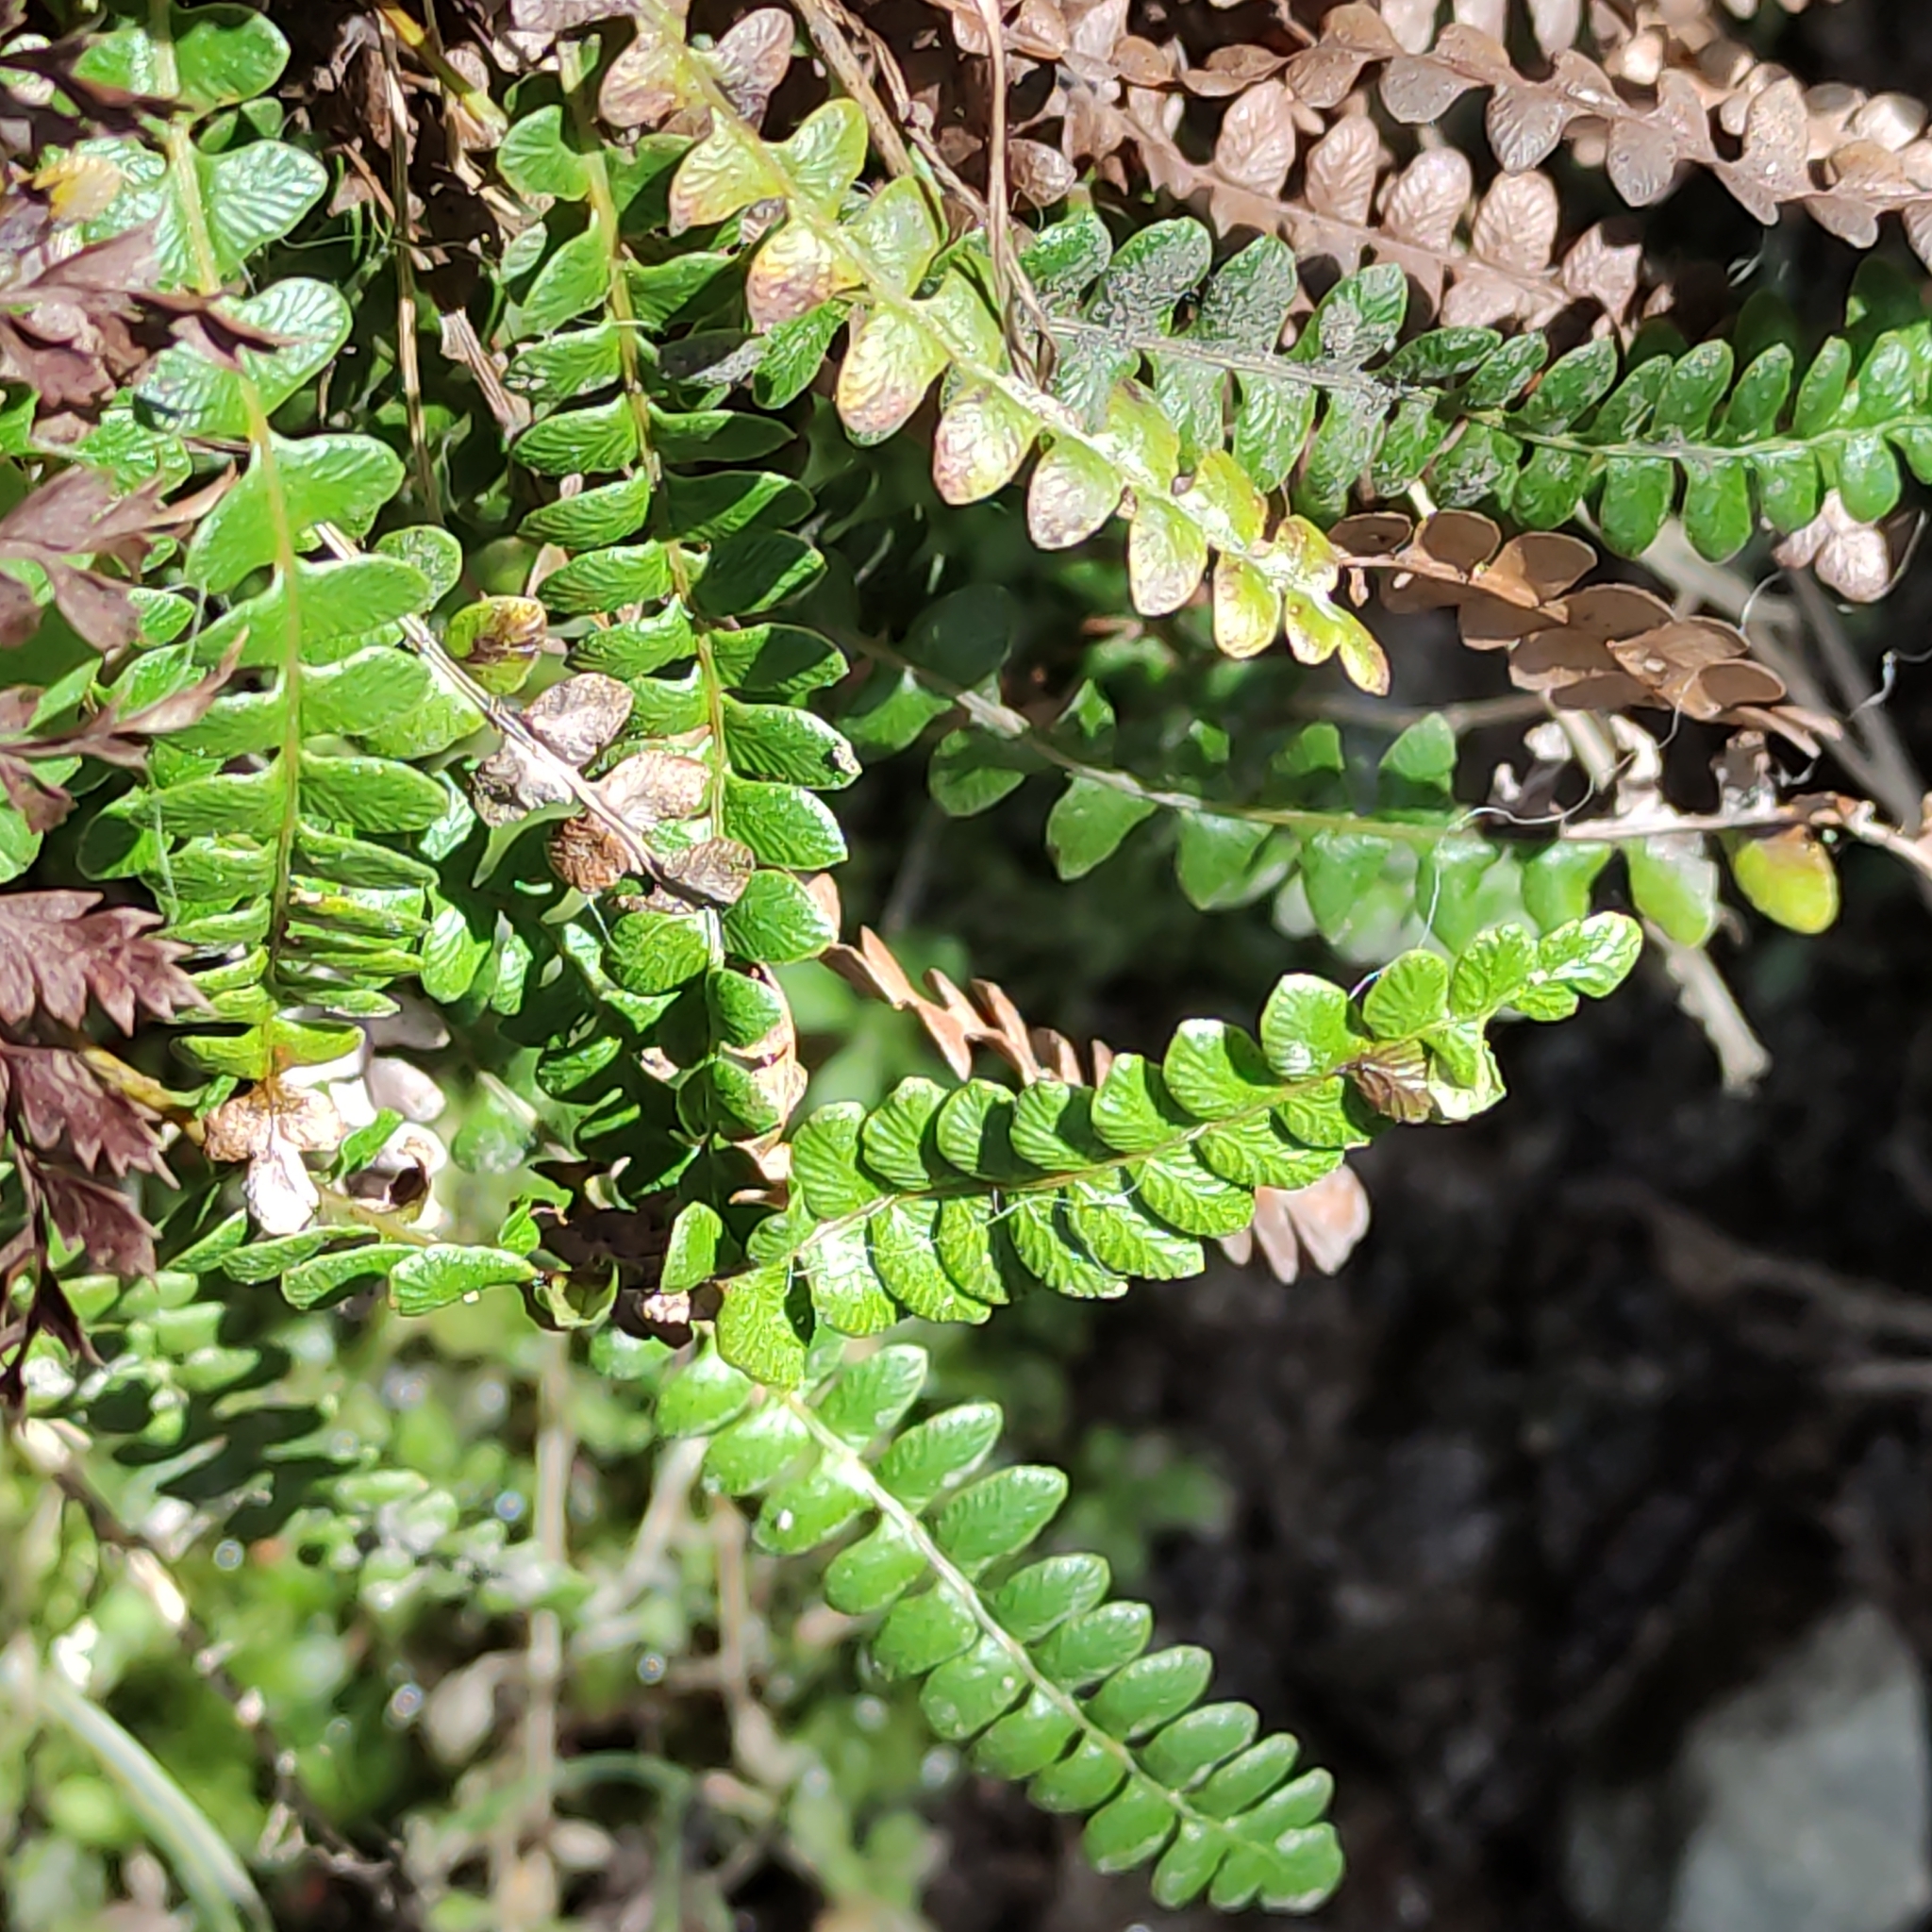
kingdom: Plantae
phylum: Tracheophyta
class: Polypodiopsida
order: Polypodiales
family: Blechnaceae
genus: Austroblechnum
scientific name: Austroblechnum penna-marina
